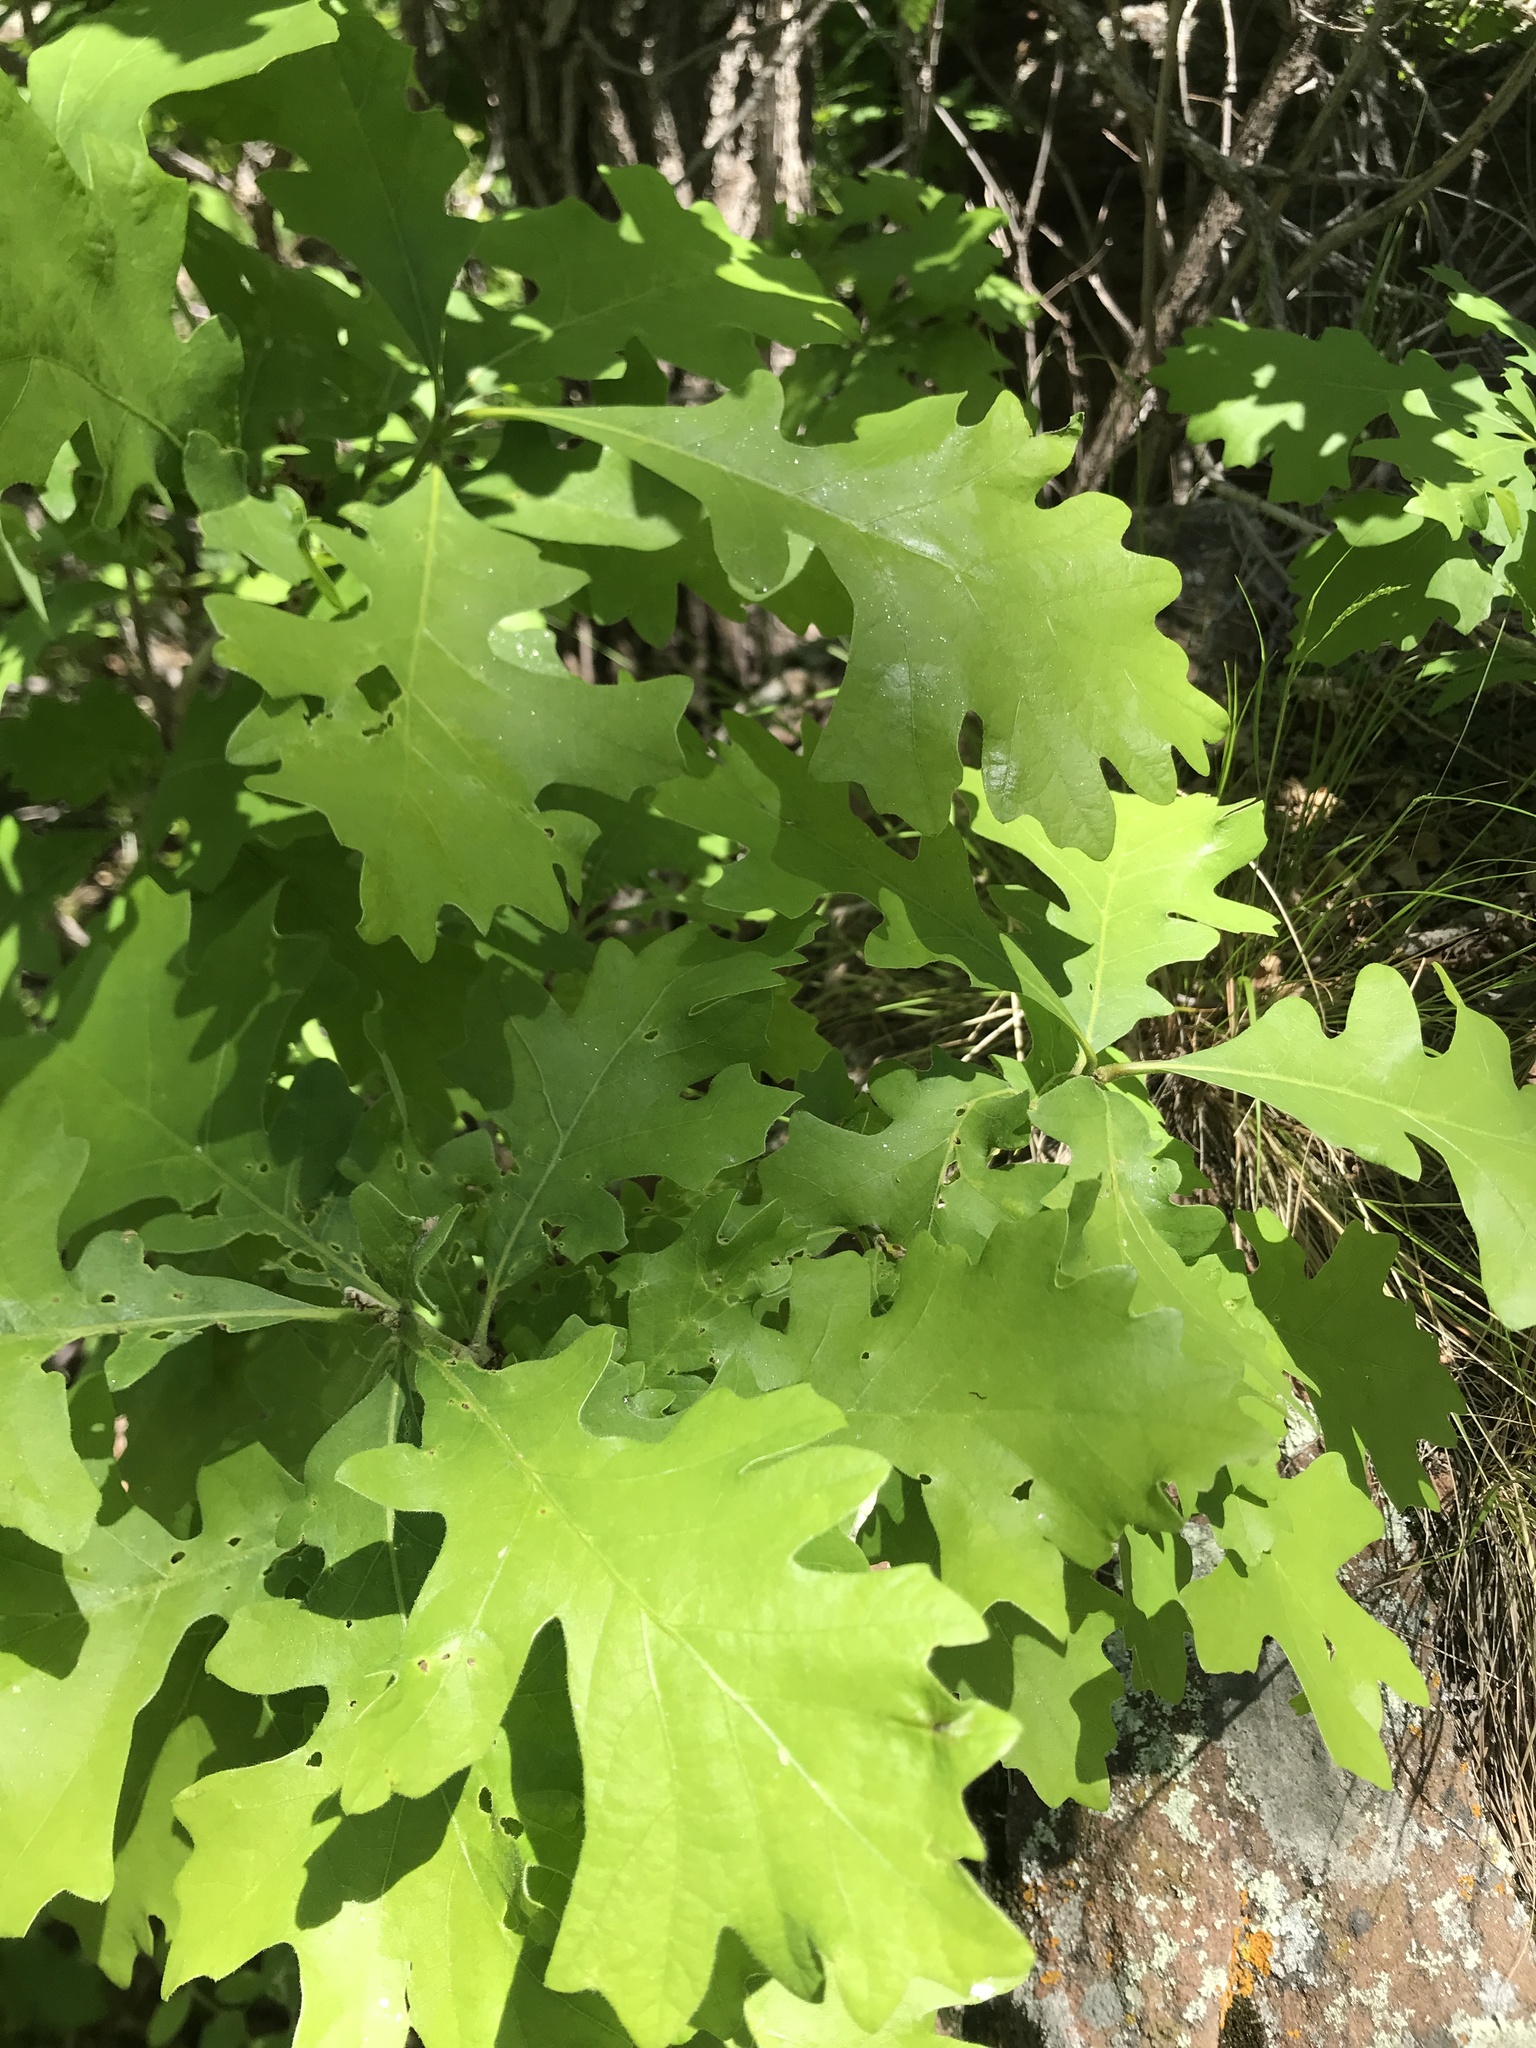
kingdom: Plantae
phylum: Tracheophyta
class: Magnoliopsida
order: Fagales
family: Fagaceae
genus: Quercus
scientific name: Quercus macrocarpa
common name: Bur oak
